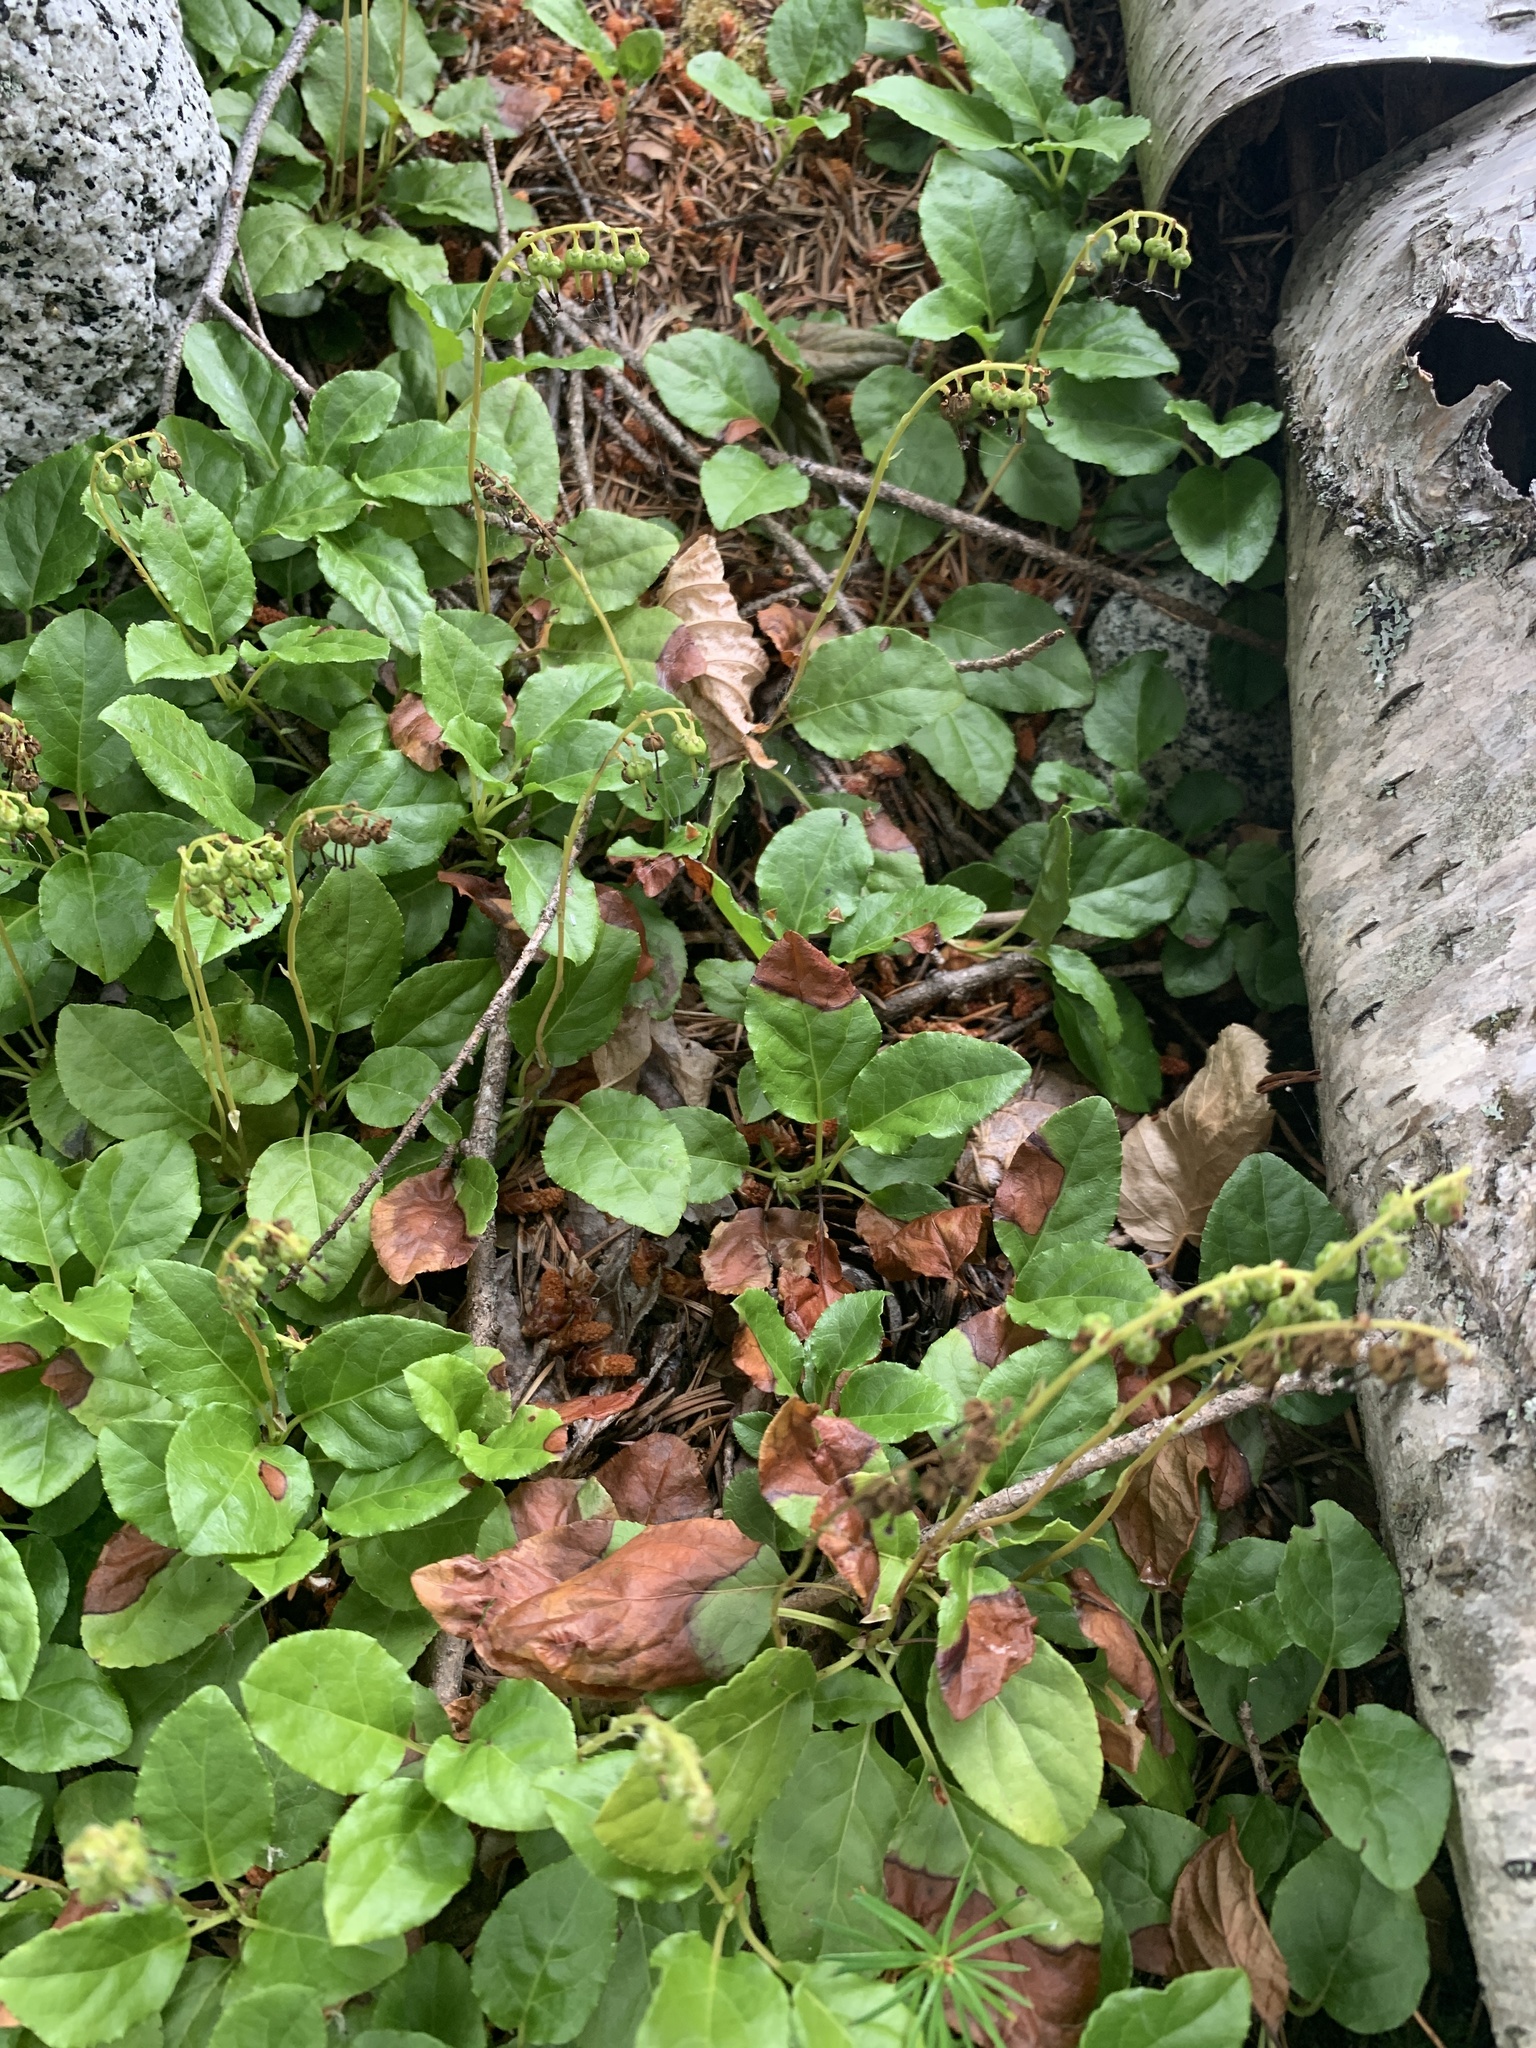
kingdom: Plantae
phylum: Tracheophyta
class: Magnoliopsida
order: Ericales
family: Ericaceae
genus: Orthilia
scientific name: Orthilia secunda
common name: One-sided orthilia
